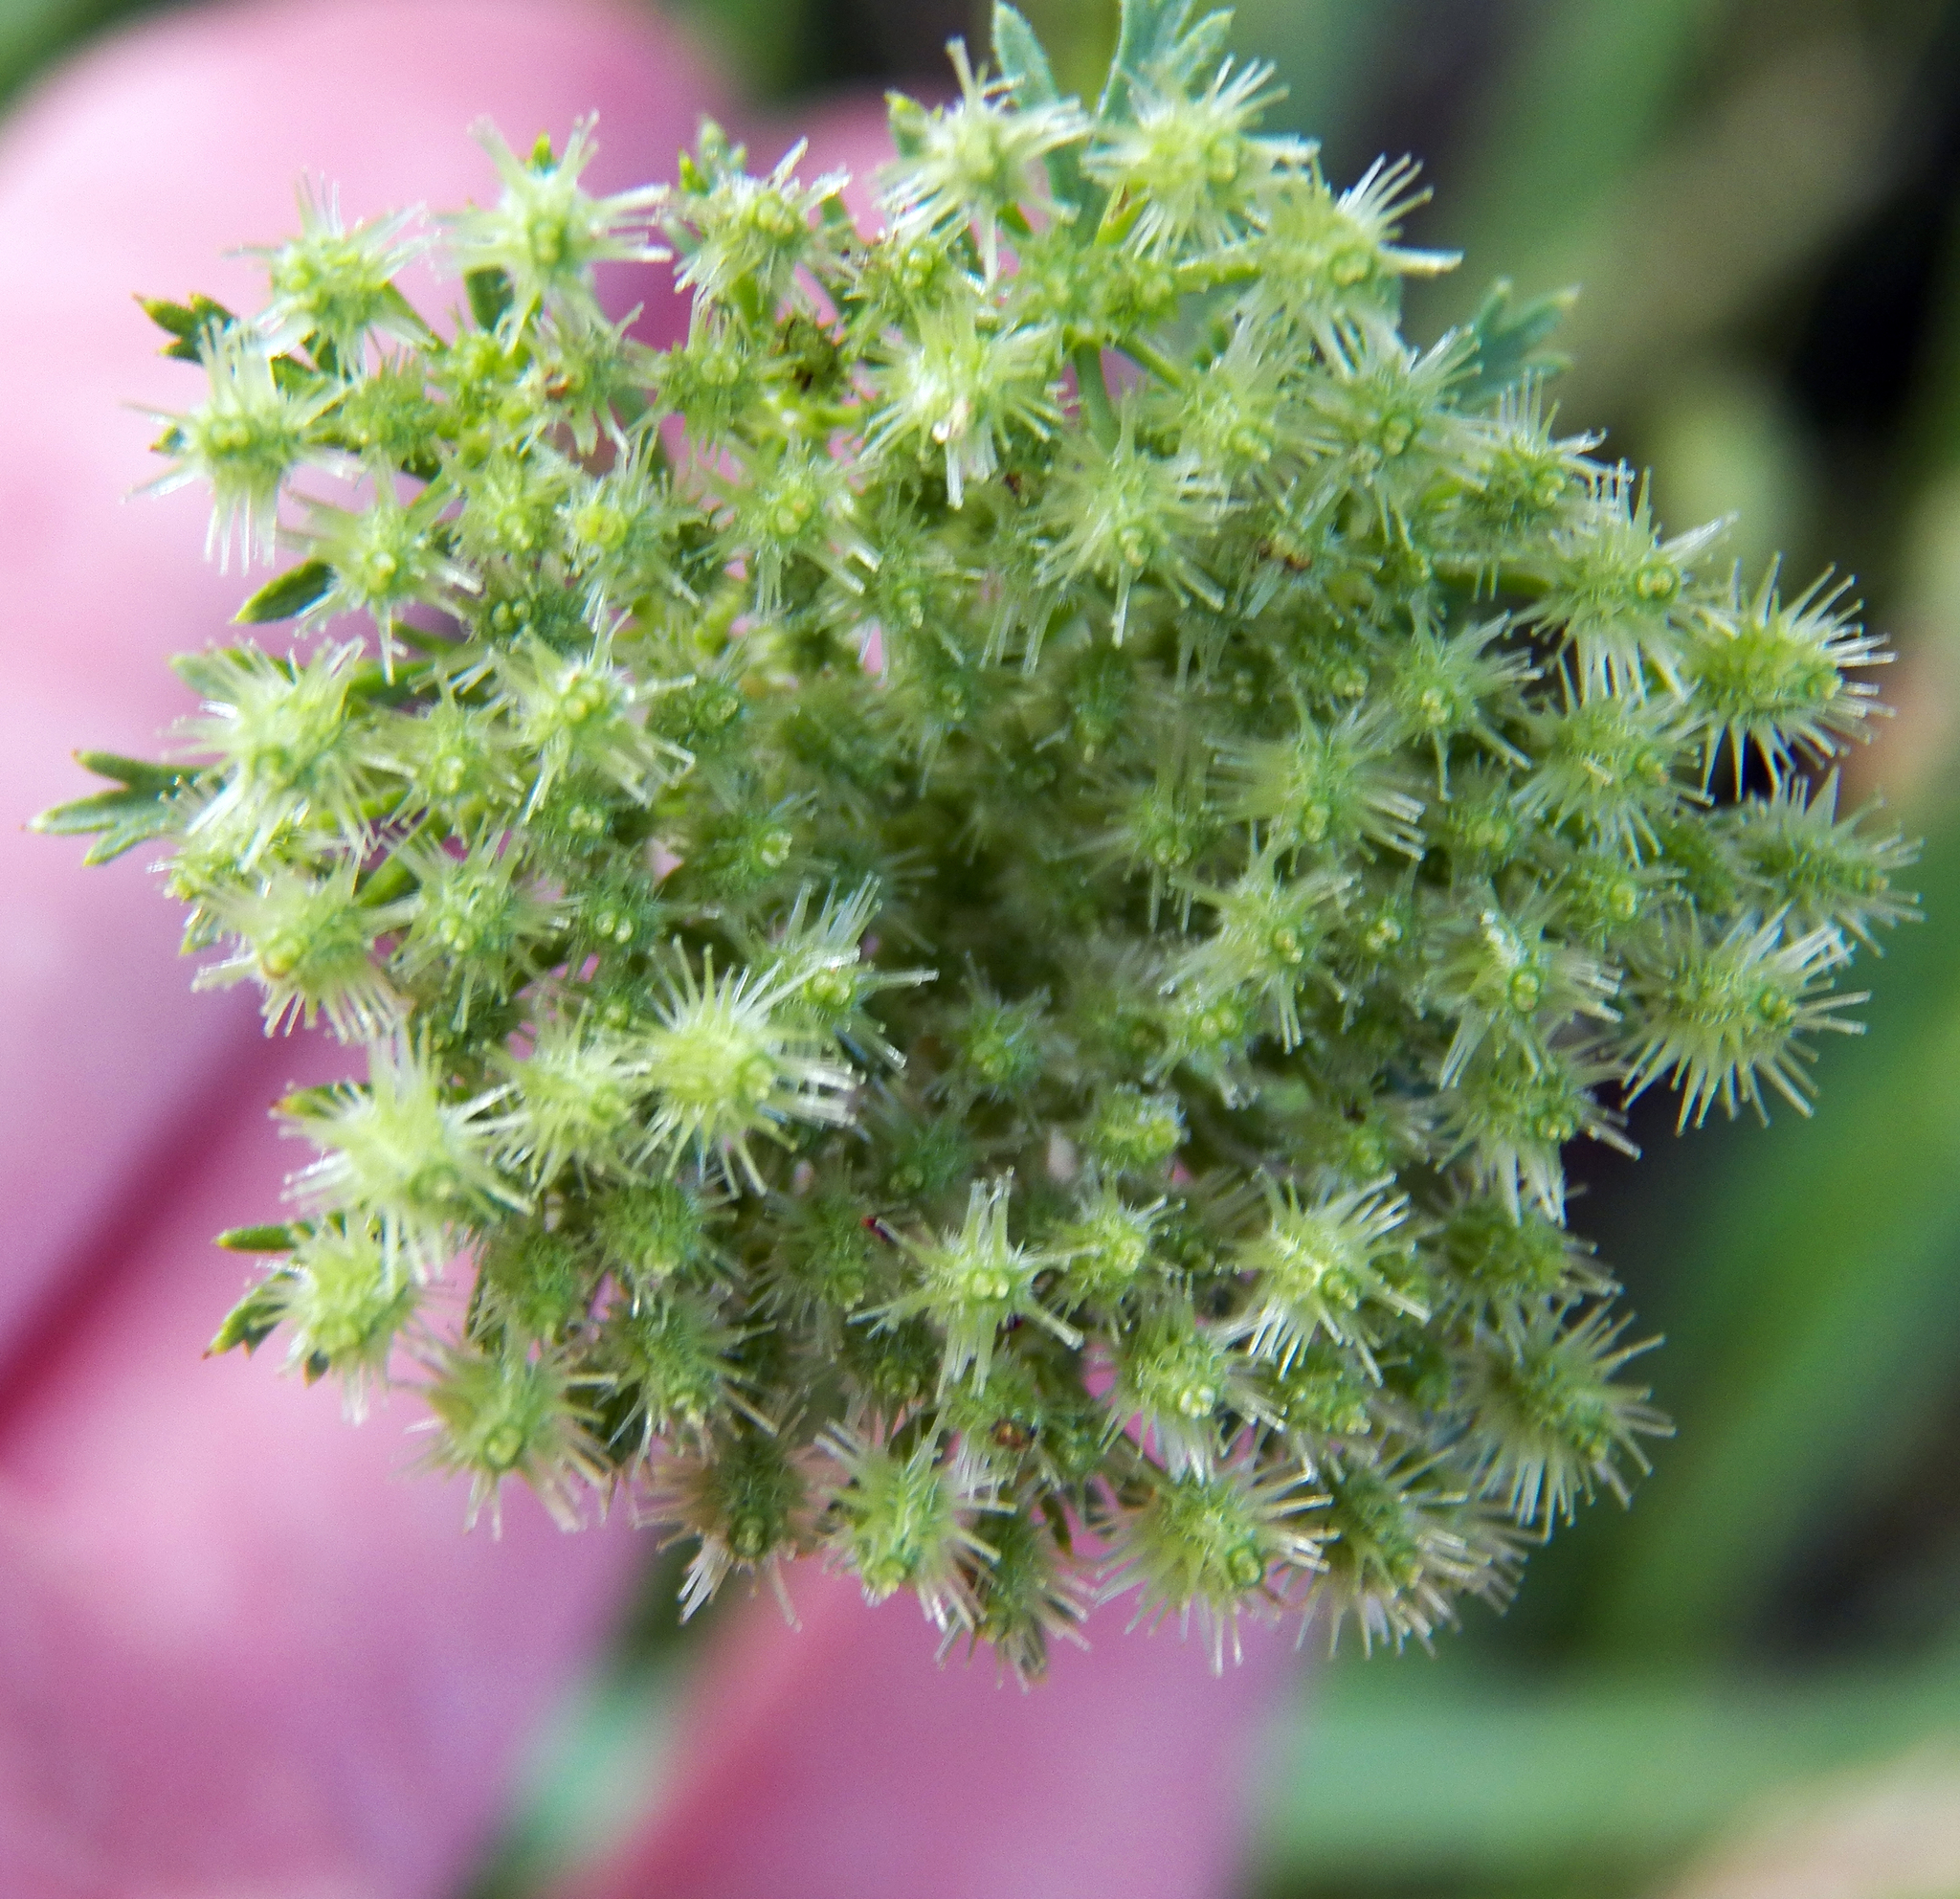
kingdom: Plantae
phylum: Tracheophyta
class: Magnoliopsida
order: Apiales
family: Apiaceae
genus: Daucus
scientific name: Daucus pusillus
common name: Southwest wild carrot
